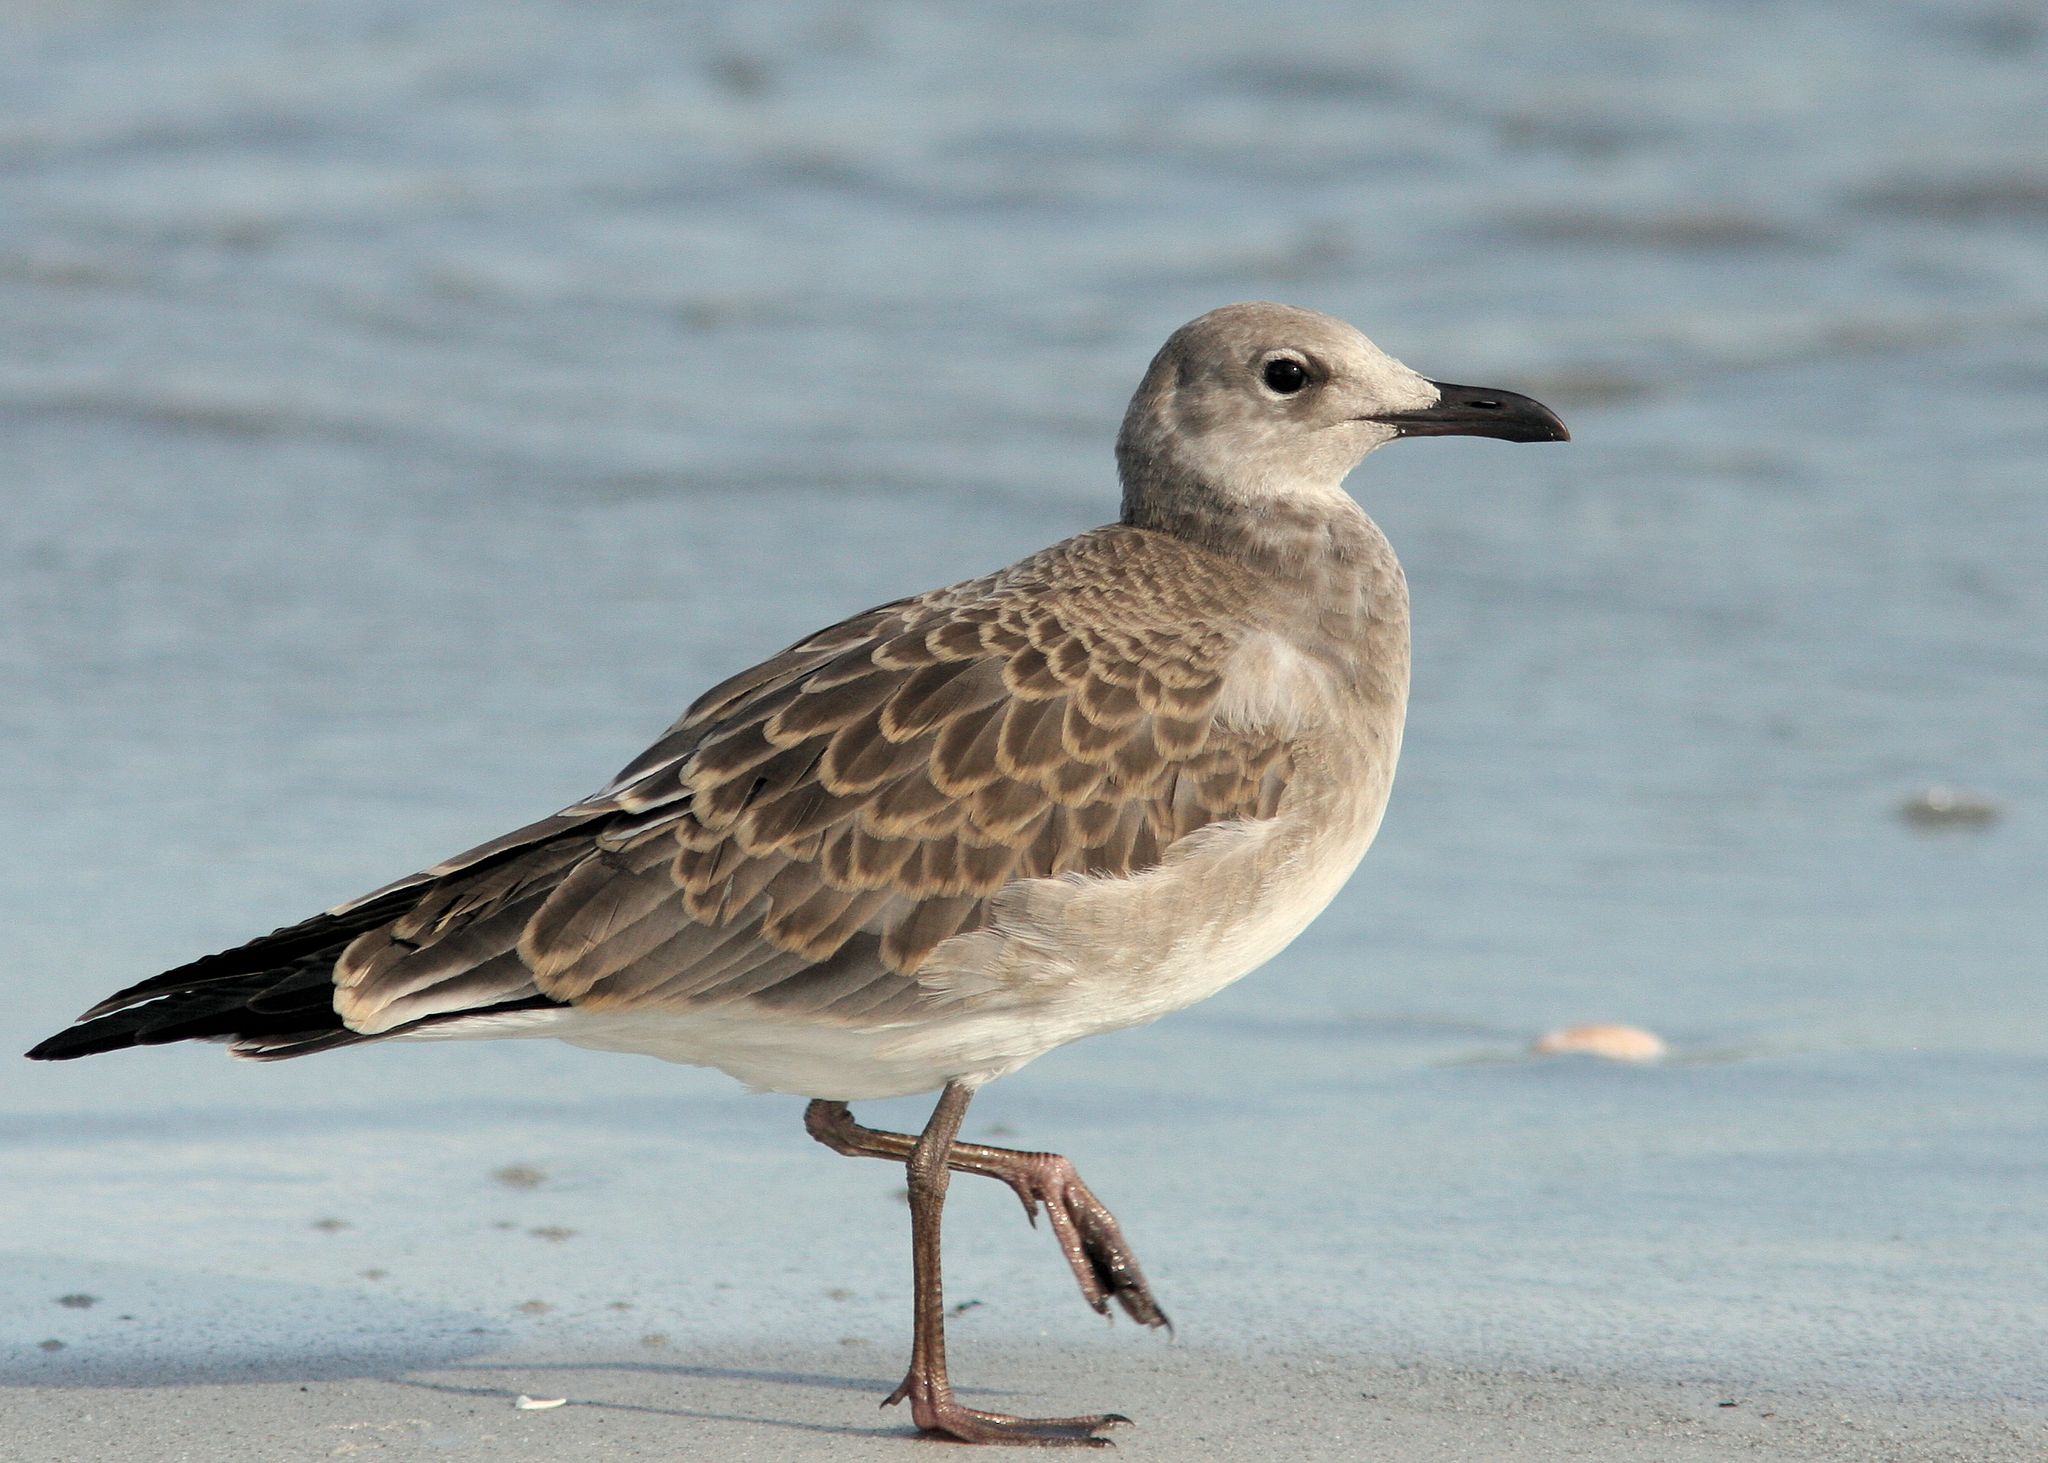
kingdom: Animalia
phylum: Chordata
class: Aves
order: Charadriiformes
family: Laridae
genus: Leucophaeus
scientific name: Leucophaeus atricilla
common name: Laughing gull
